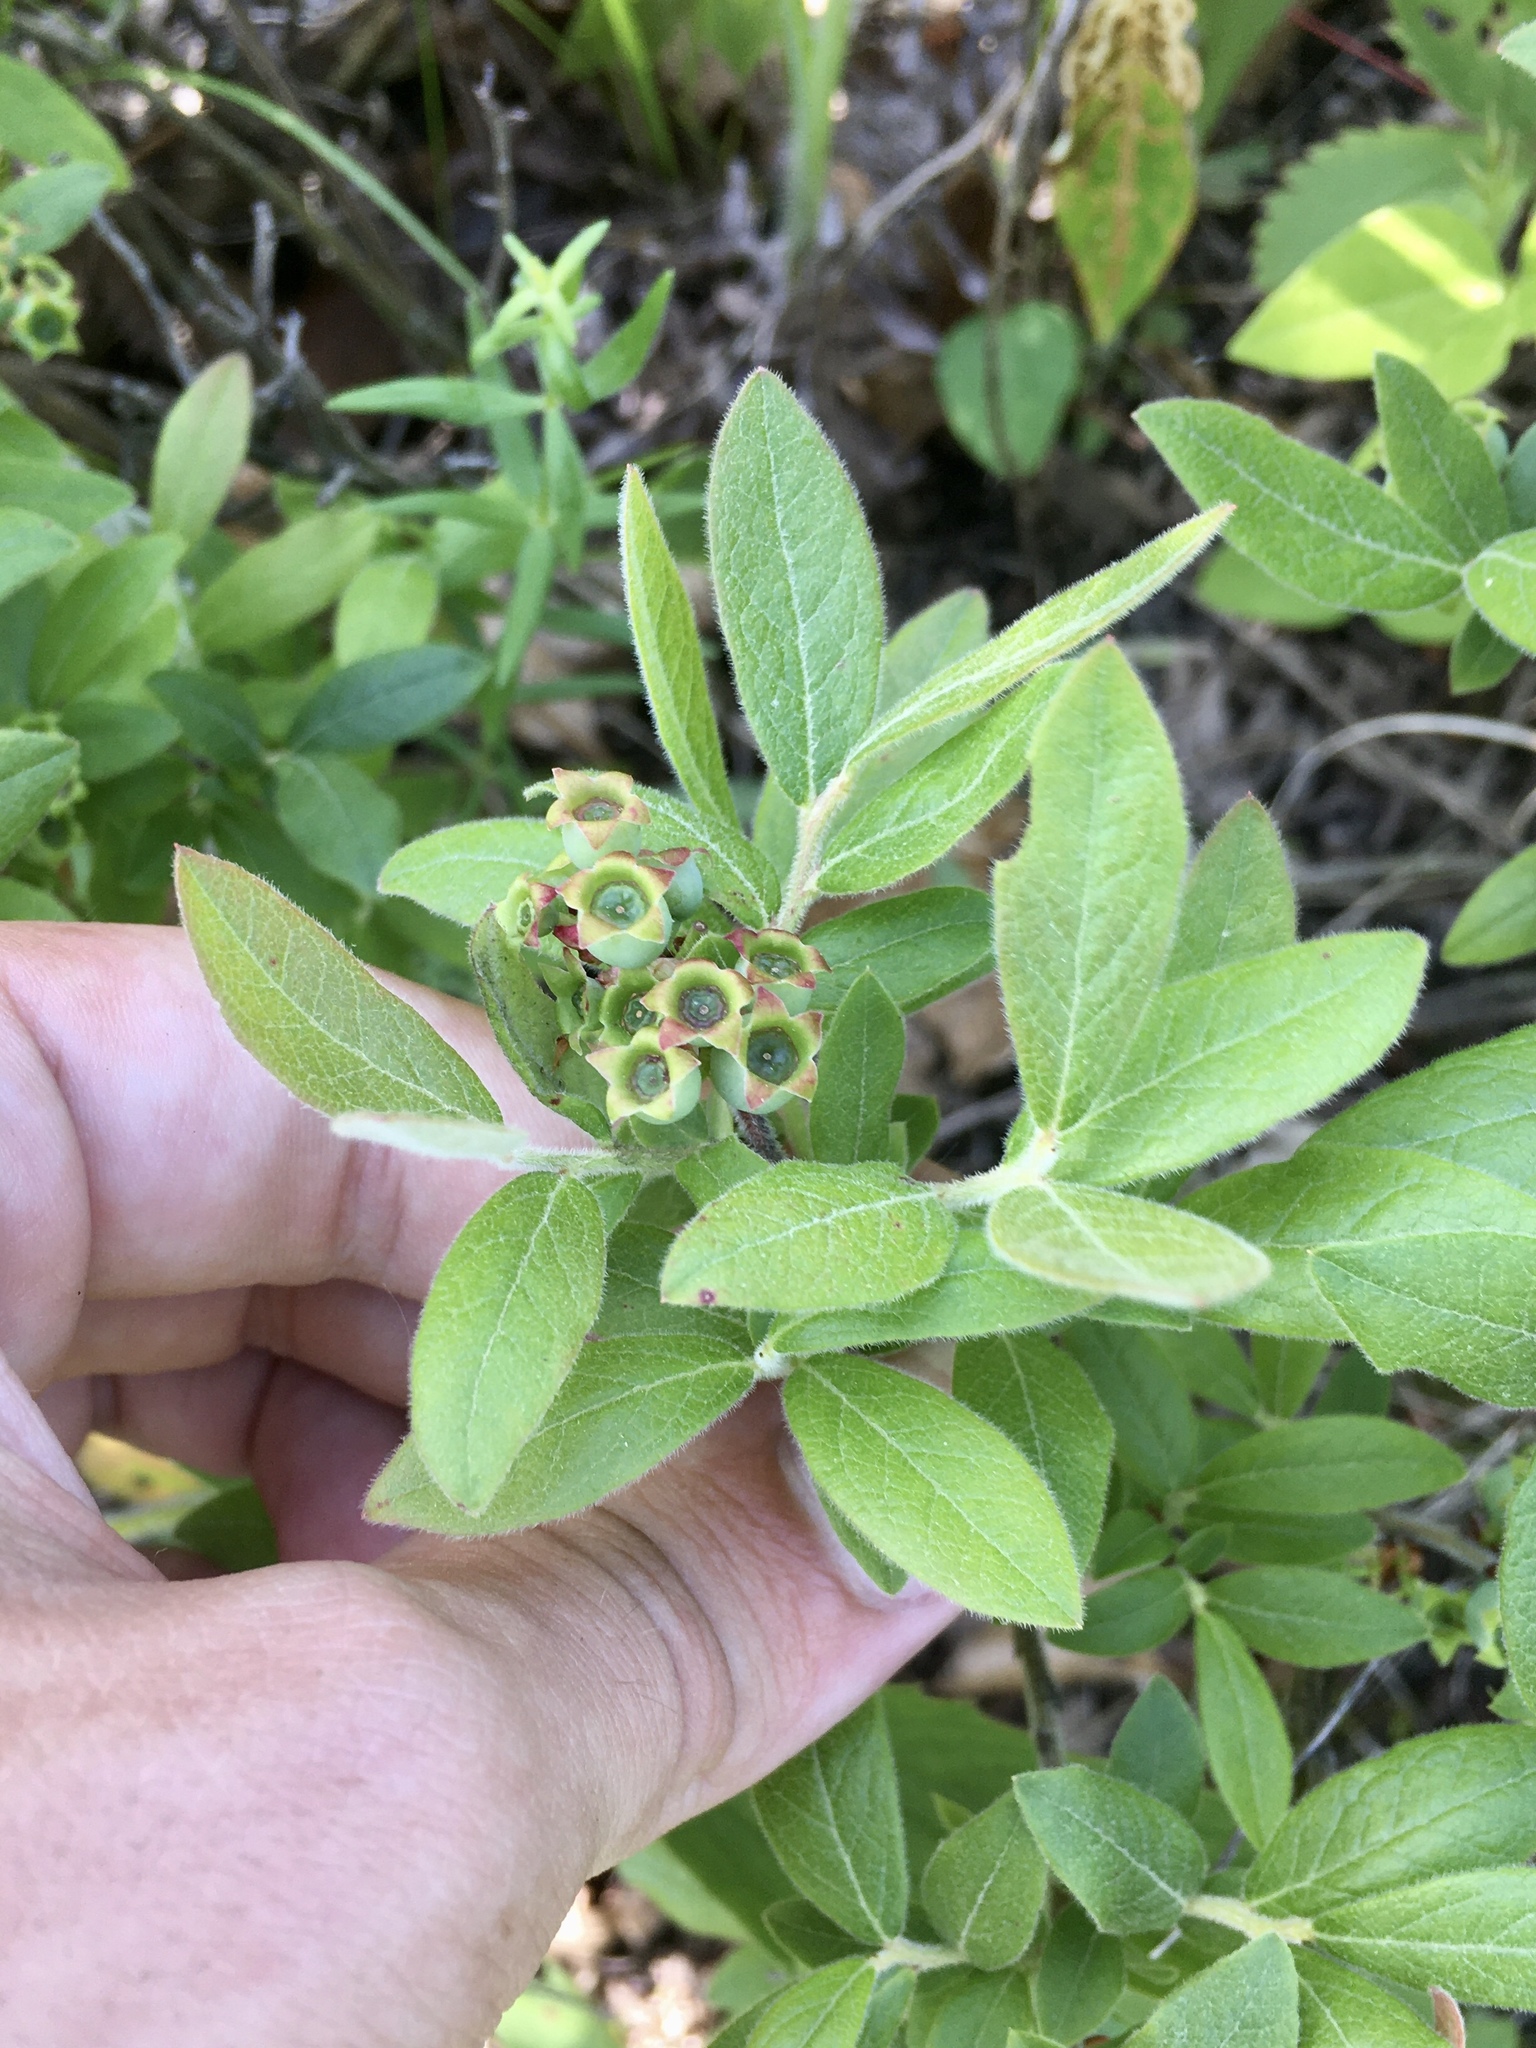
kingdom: Plantae
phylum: Tracheophyta
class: Magnoliopsida
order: Ericales
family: Ericaceae
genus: Vaccinium
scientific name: Vaccinium myrtilloides
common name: Canada blueberry
